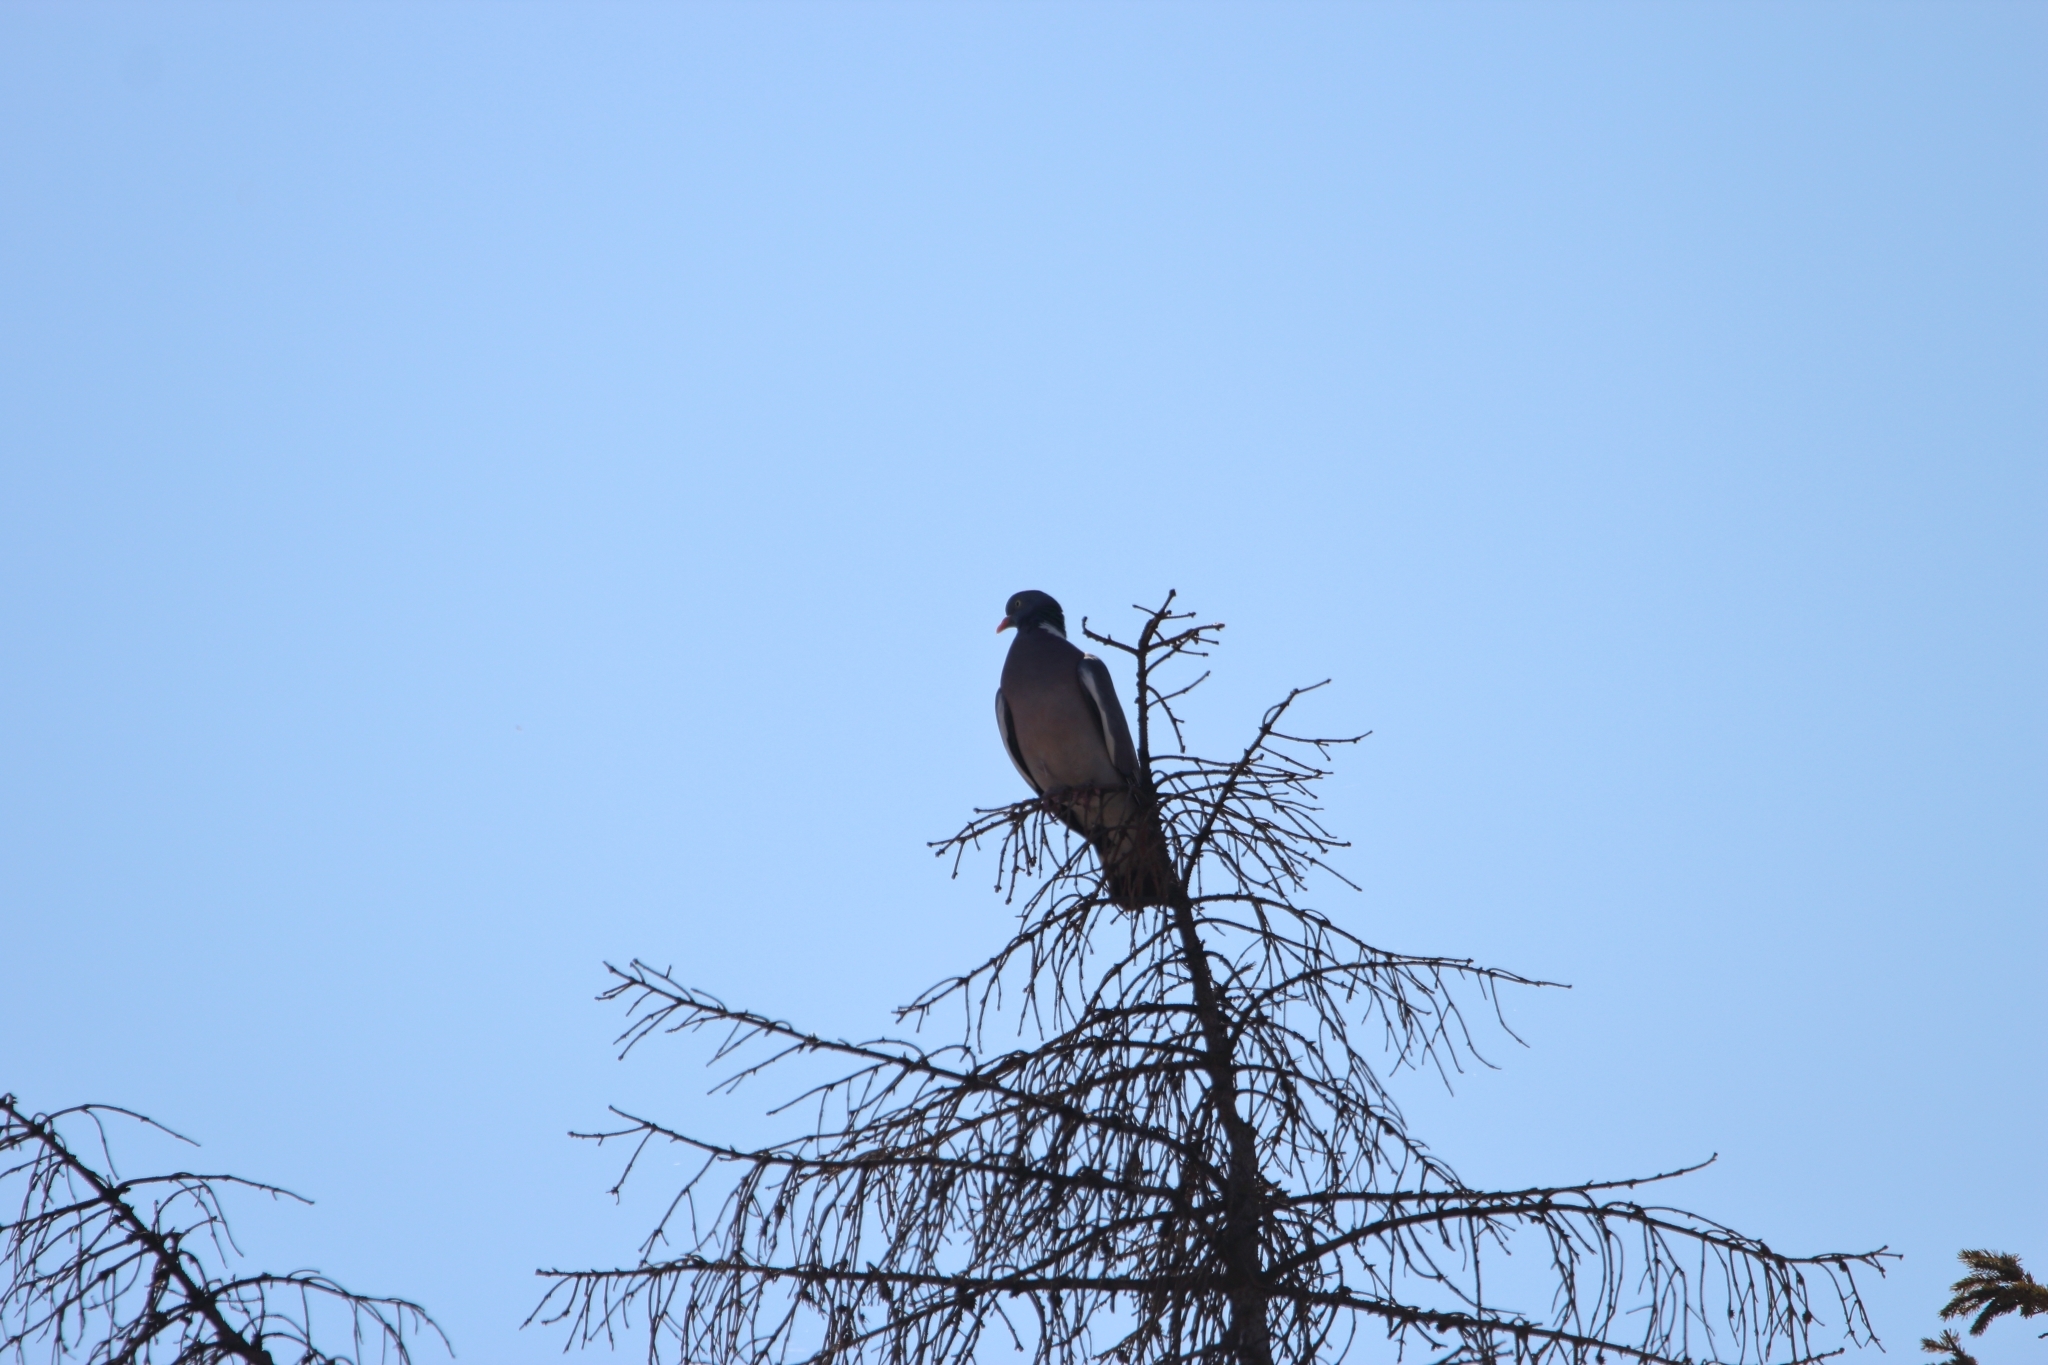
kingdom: Animalia
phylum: Chordata
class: Aves
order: Columbiformes
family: Columbidae
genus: Columba
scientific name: Columba palumbus
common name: Common wood pigeon
